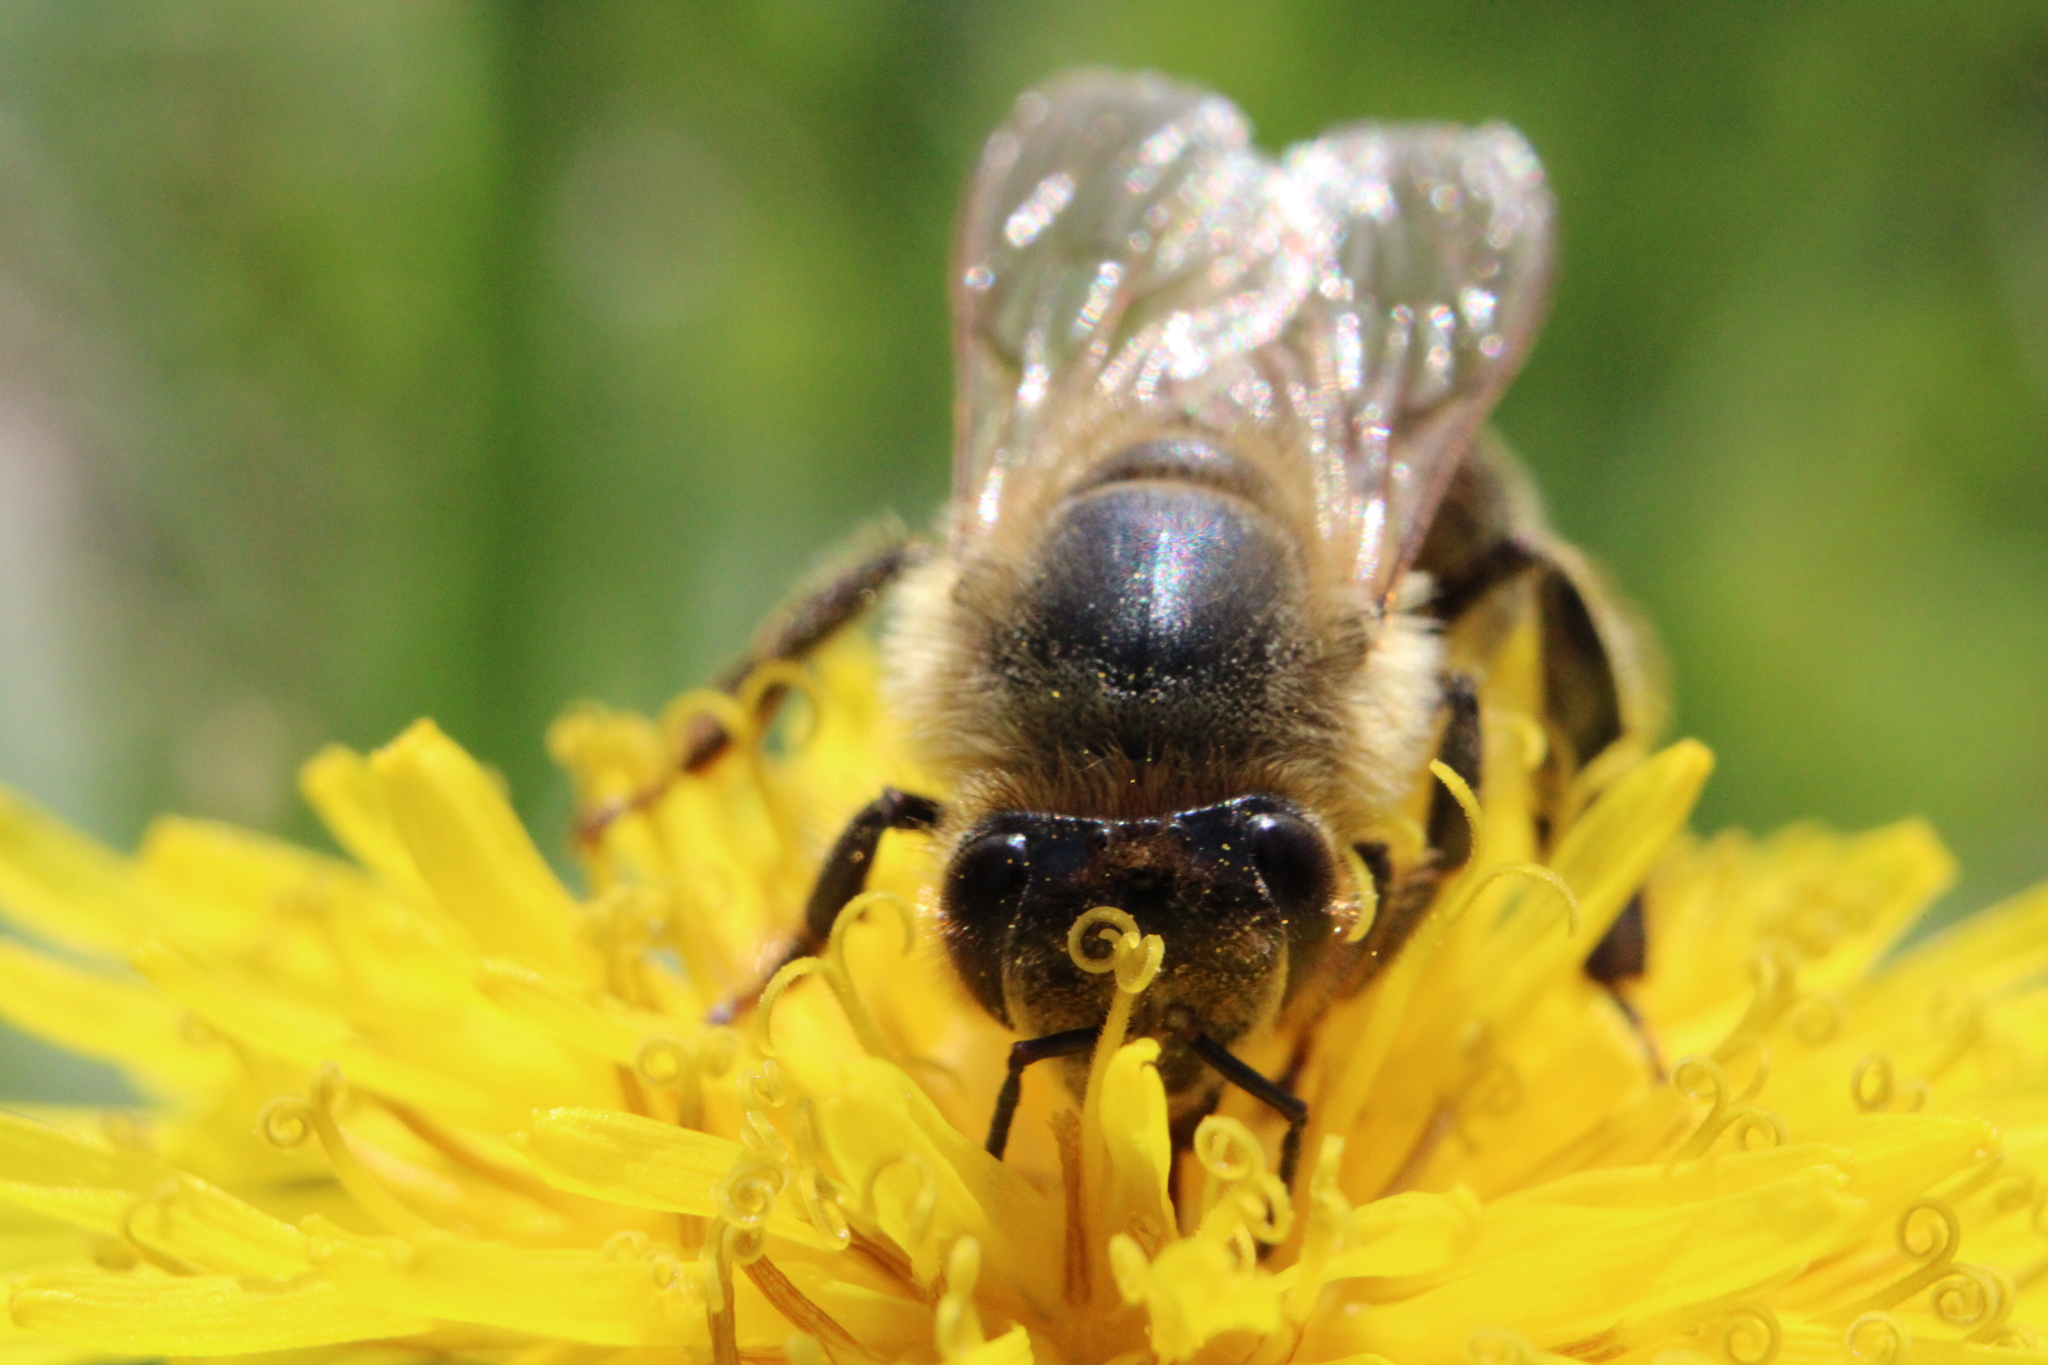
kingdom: Animalia
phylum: Arthropoda
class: Insecta
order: Hymenoptera
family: Apidae
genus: Apis
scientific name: Apis mellifera
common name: Honey bee
